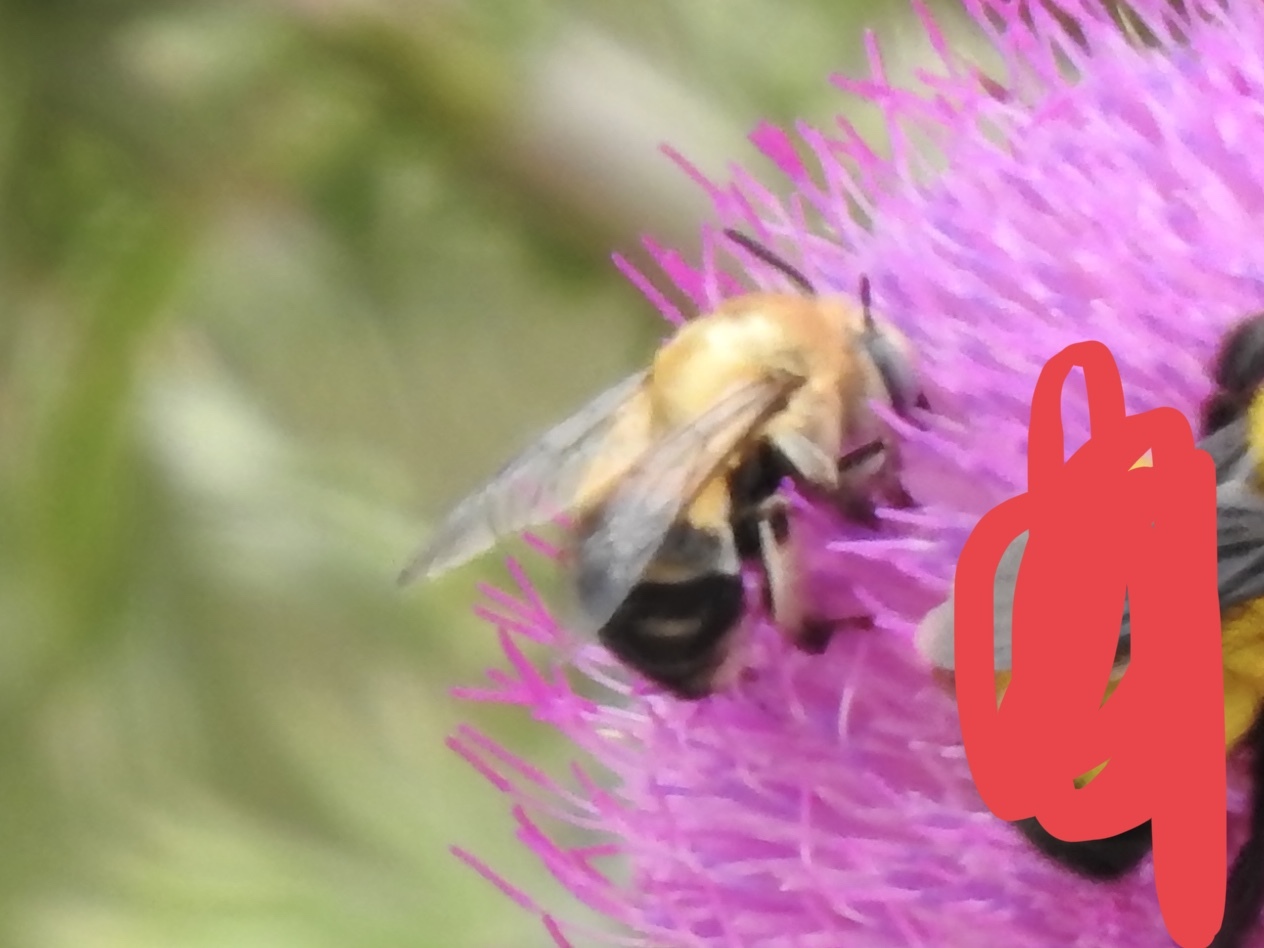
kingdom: Animalia
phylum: Arthropoda
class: Insecta
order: Hymenoptera
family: Apidae
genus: Anthophora
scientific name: Anthophora montana
